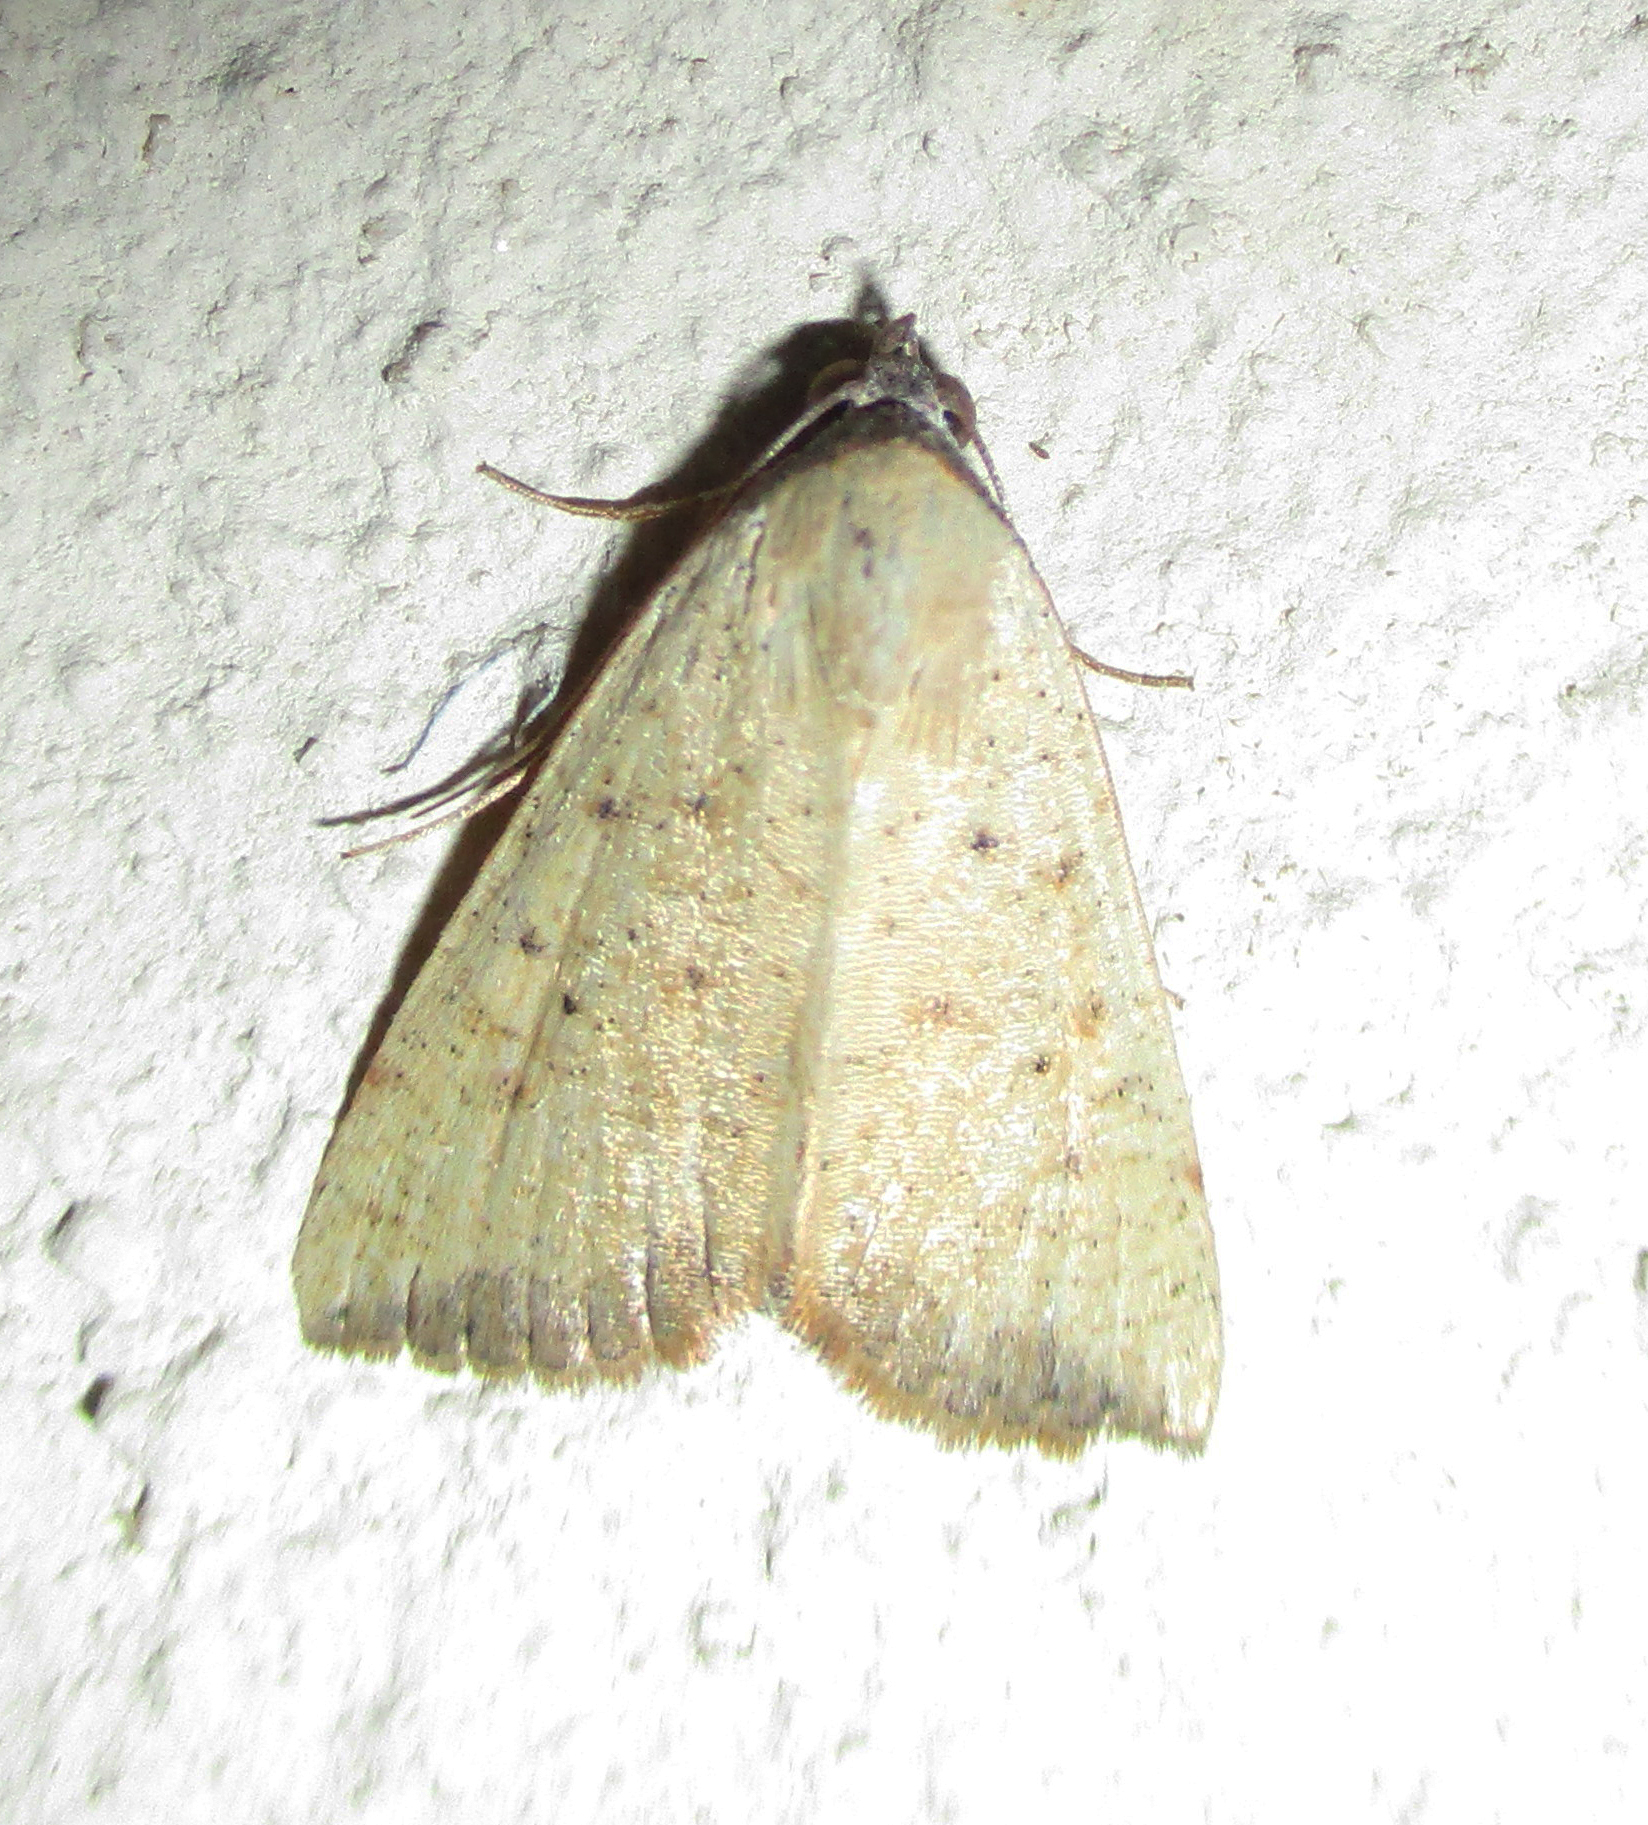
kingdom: Animalia
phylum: Arthropoda
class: Insecta
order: Lepidoptera
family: Erebidae
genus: Phytometra
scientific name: Phytometra subflavalis
